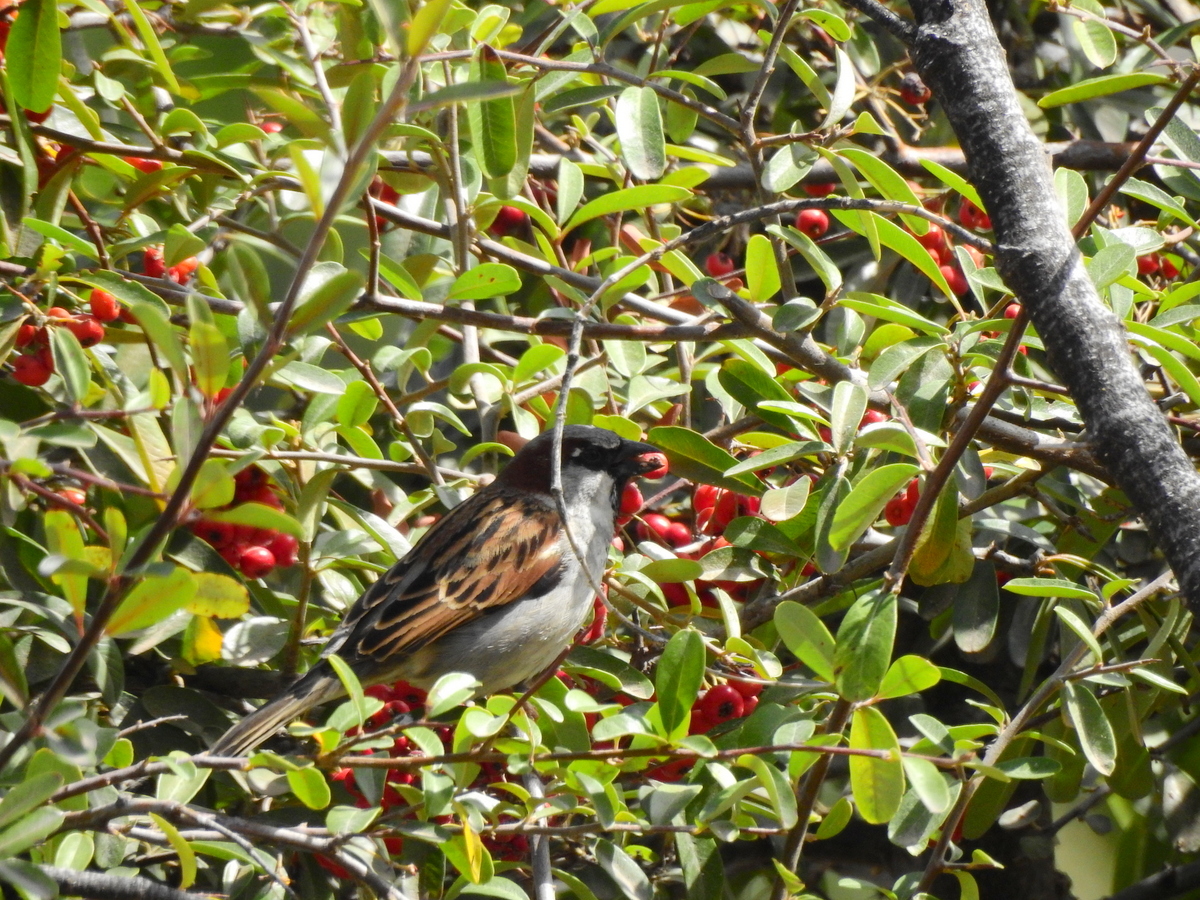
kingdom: Animalia
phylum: Chordata
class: Aves
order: Passeriformes
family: Passeridae
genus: Passer
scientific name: Passer domesticus
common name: House sparrow
